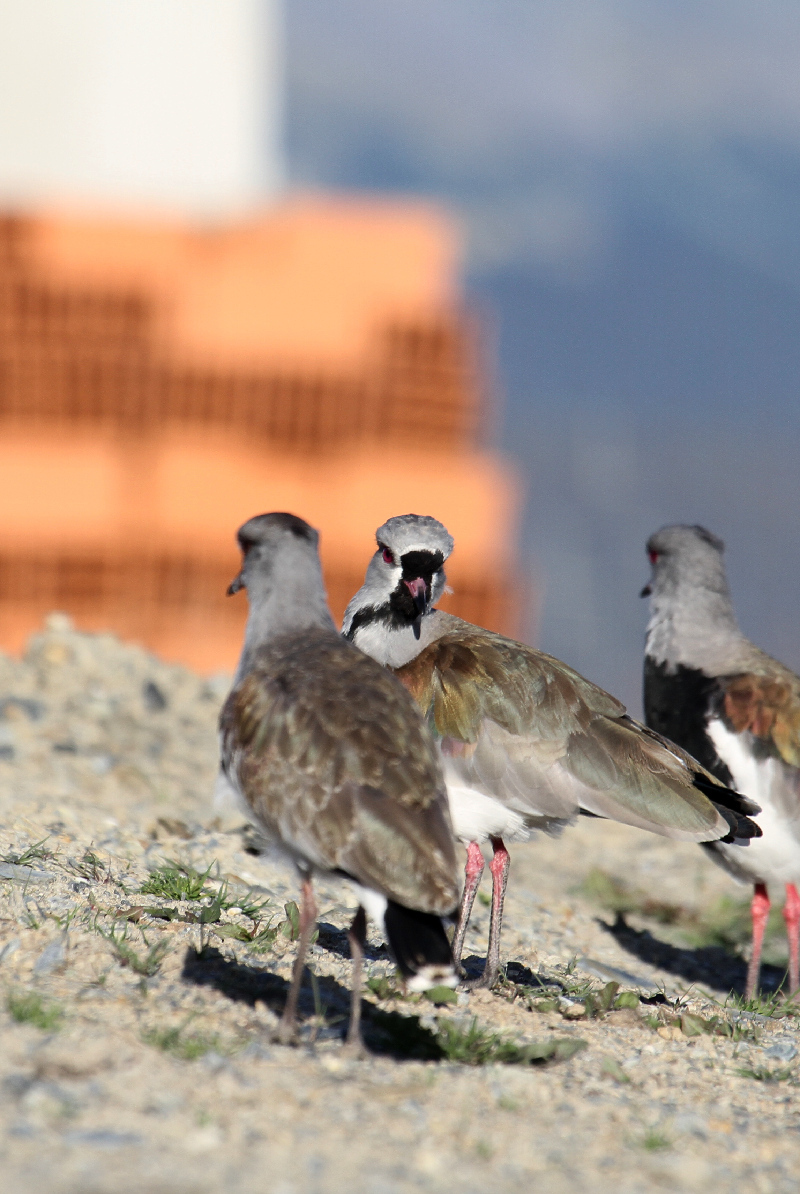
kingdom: Animalia
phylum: Chordata
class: Aves
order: Charadriiformes
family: Charadriidae
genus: Vanellus
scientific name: Vanellus chilensis
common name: Southern lapwing
